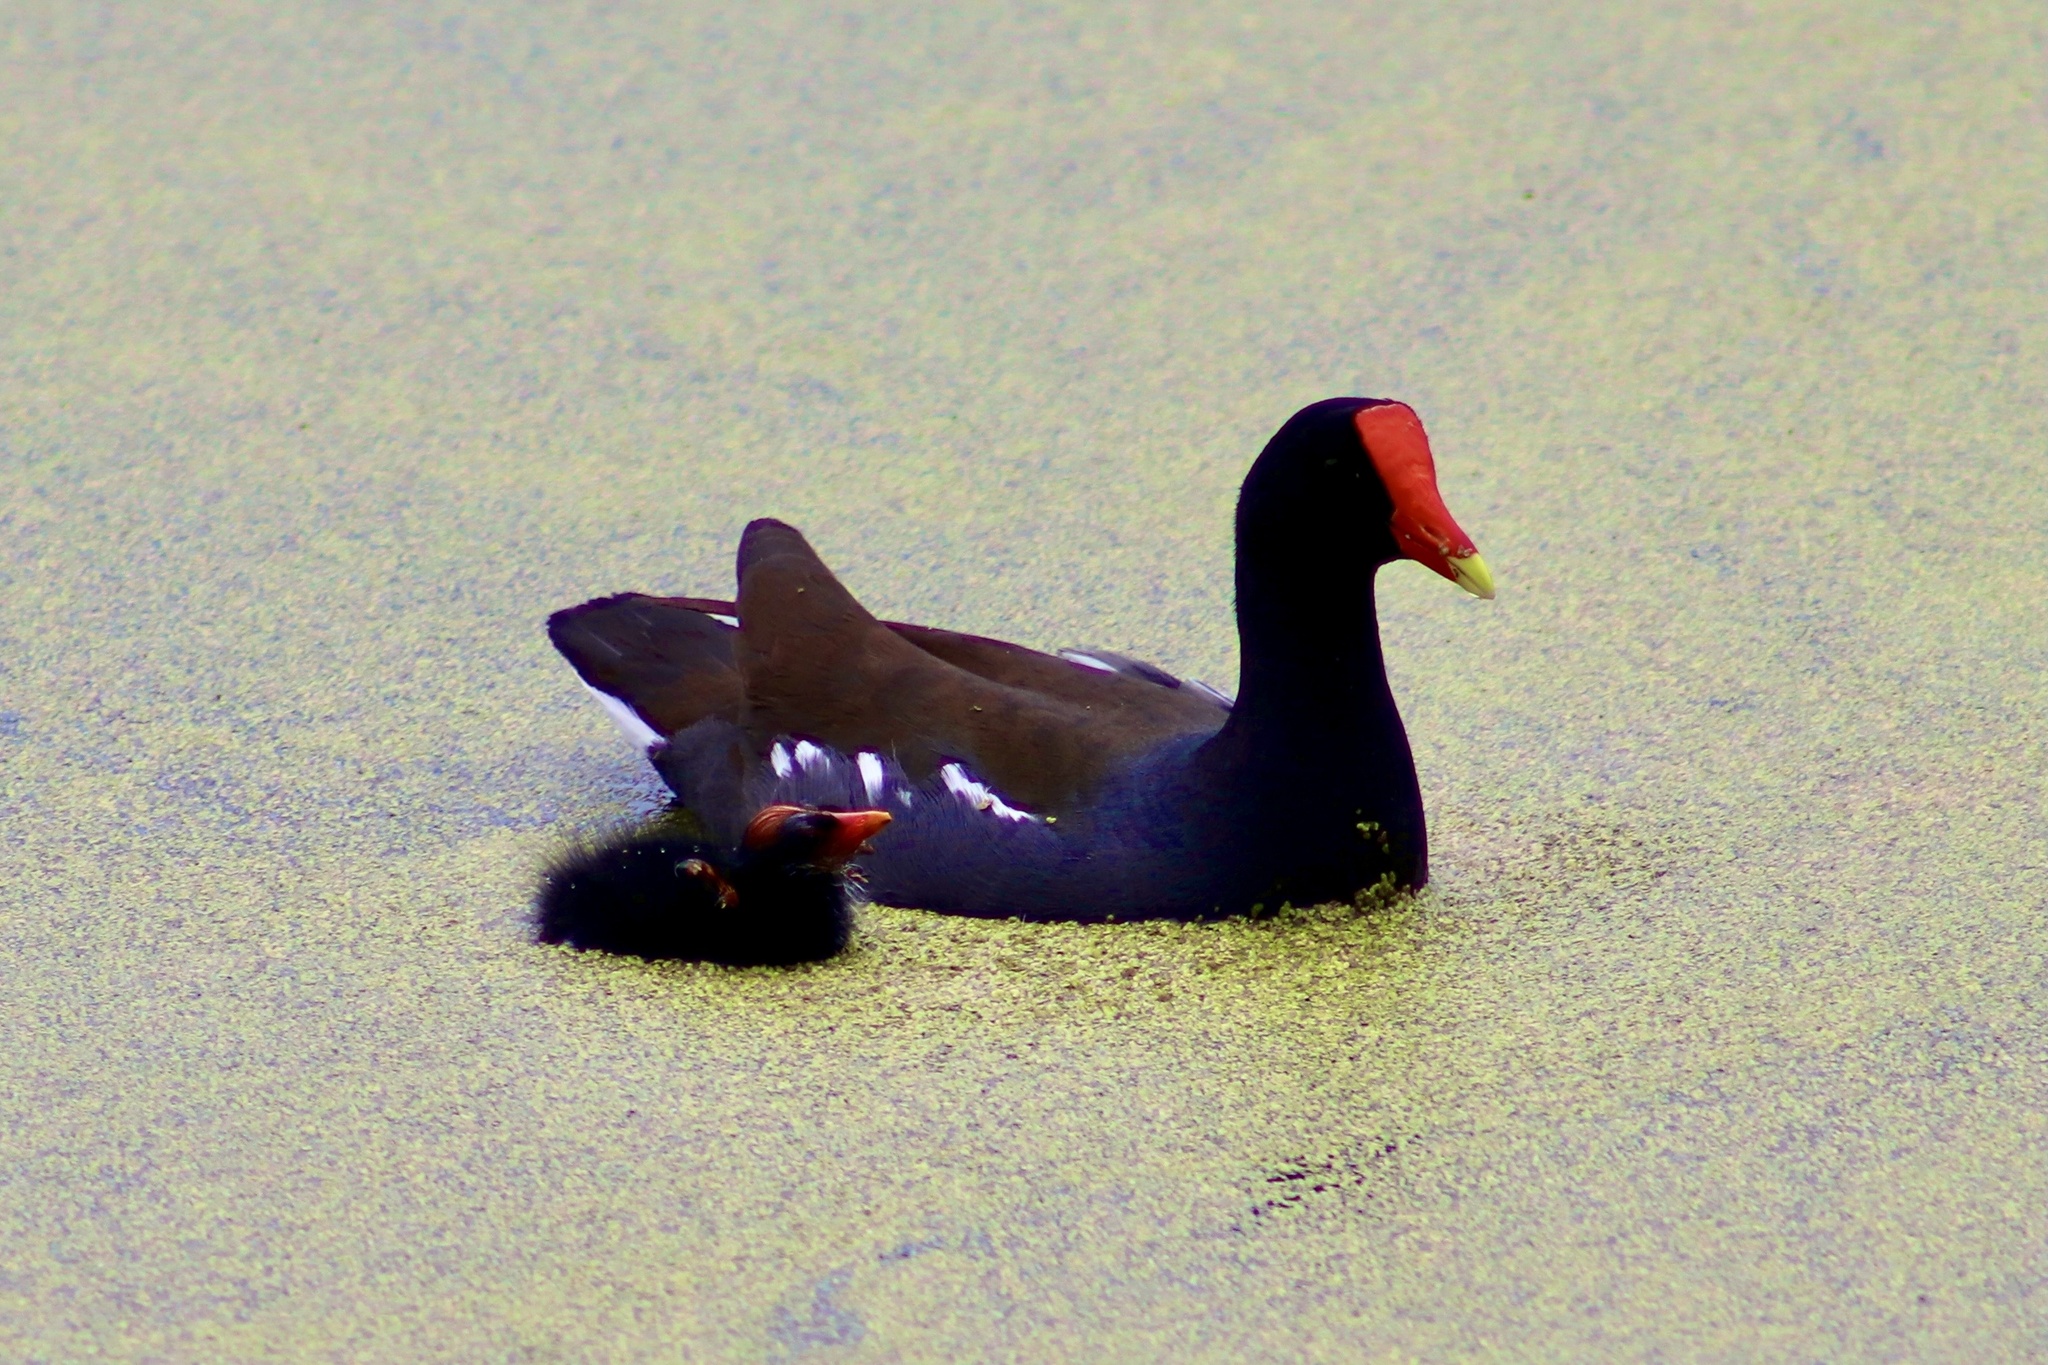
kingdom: Animalia
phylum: Chordata
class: Aves
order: Gruiformes
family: Rallidae
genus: Gallinula
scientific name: Gallinula chloropus
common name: Common moorhen
